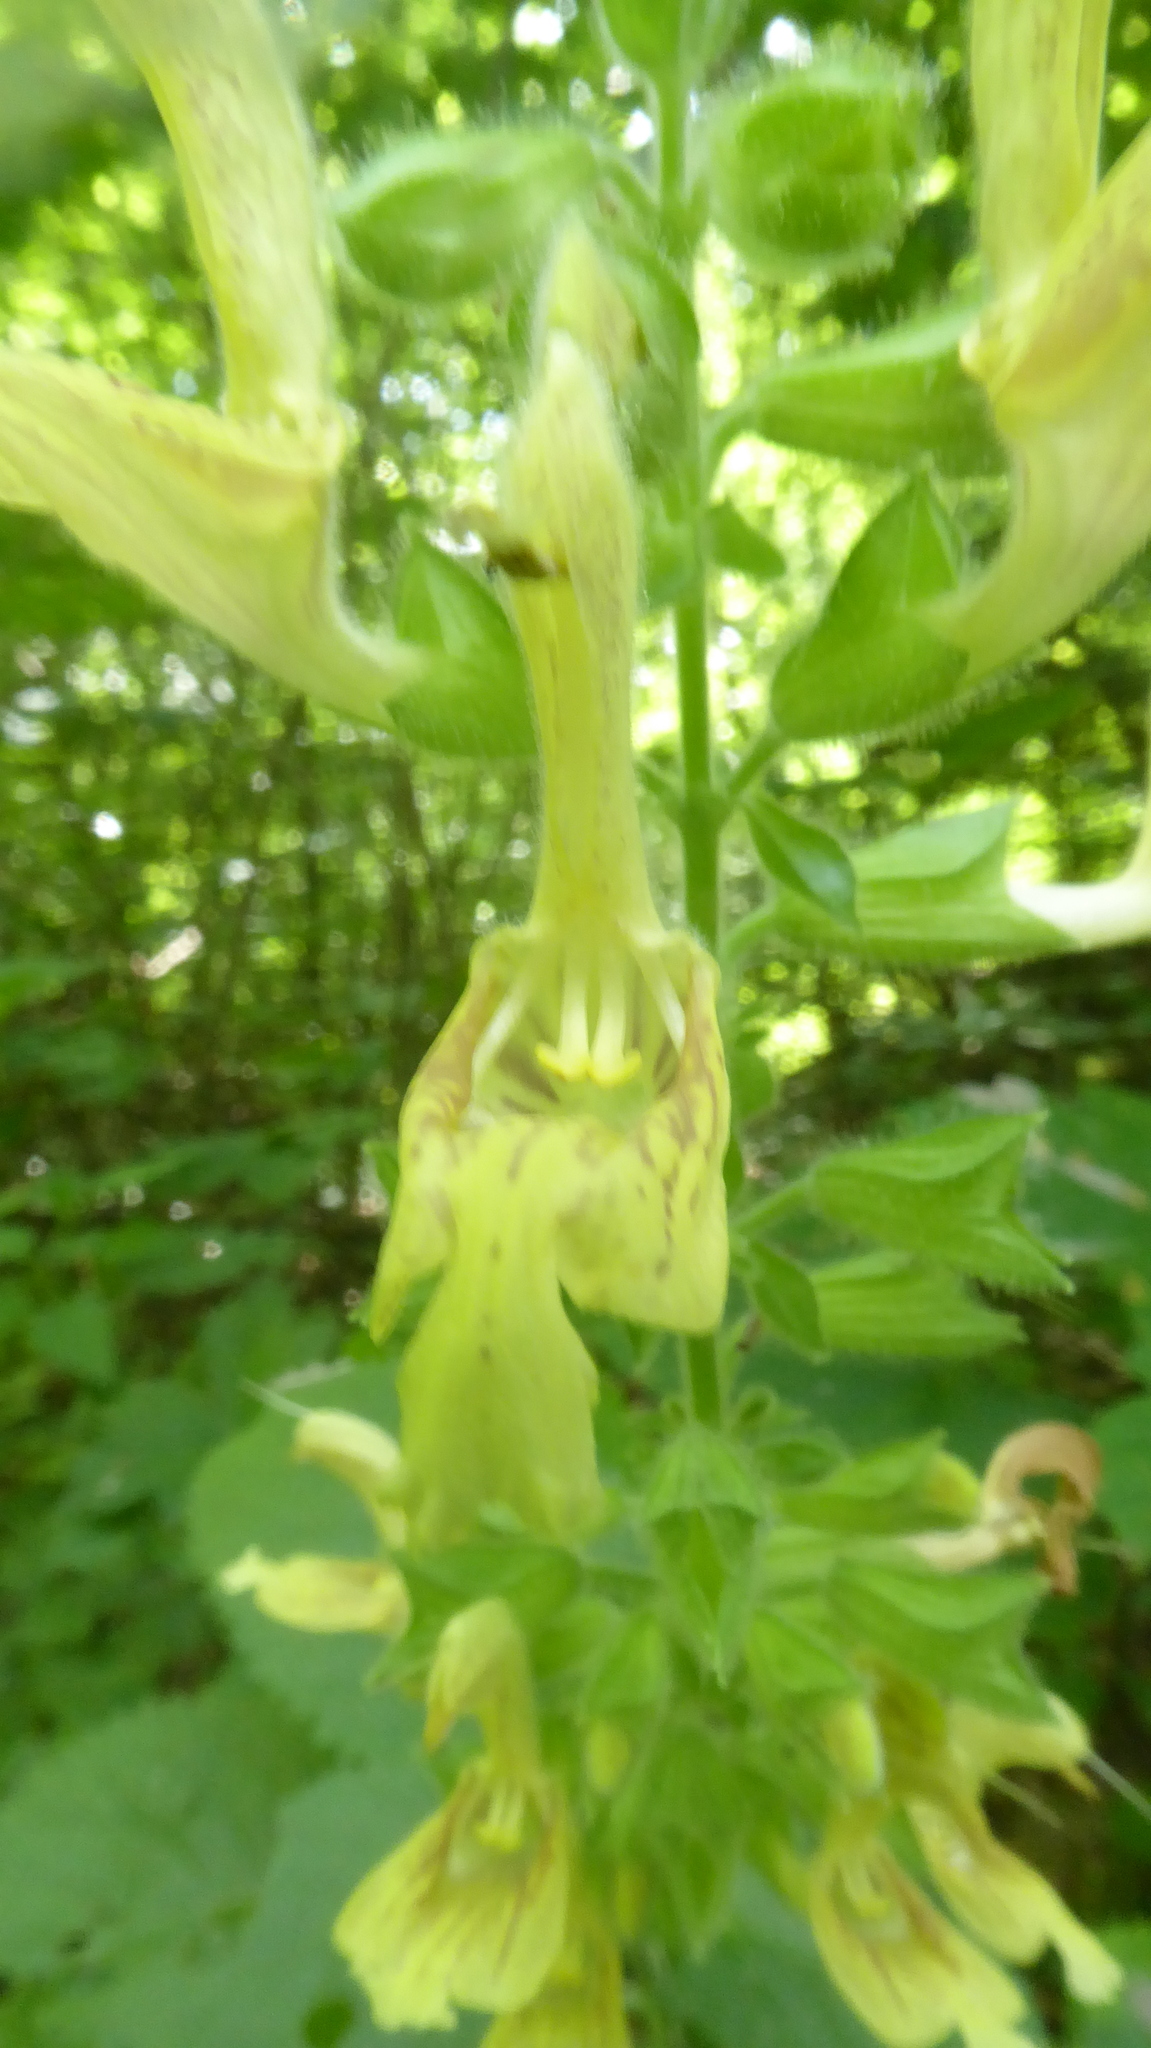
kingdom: Plantae
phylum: Tracheophyta
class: Magnoliopsida
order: Lamiales
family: Lamiaceae
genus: Salvia
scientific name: Salvia glutinosa
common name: Sticky clary
